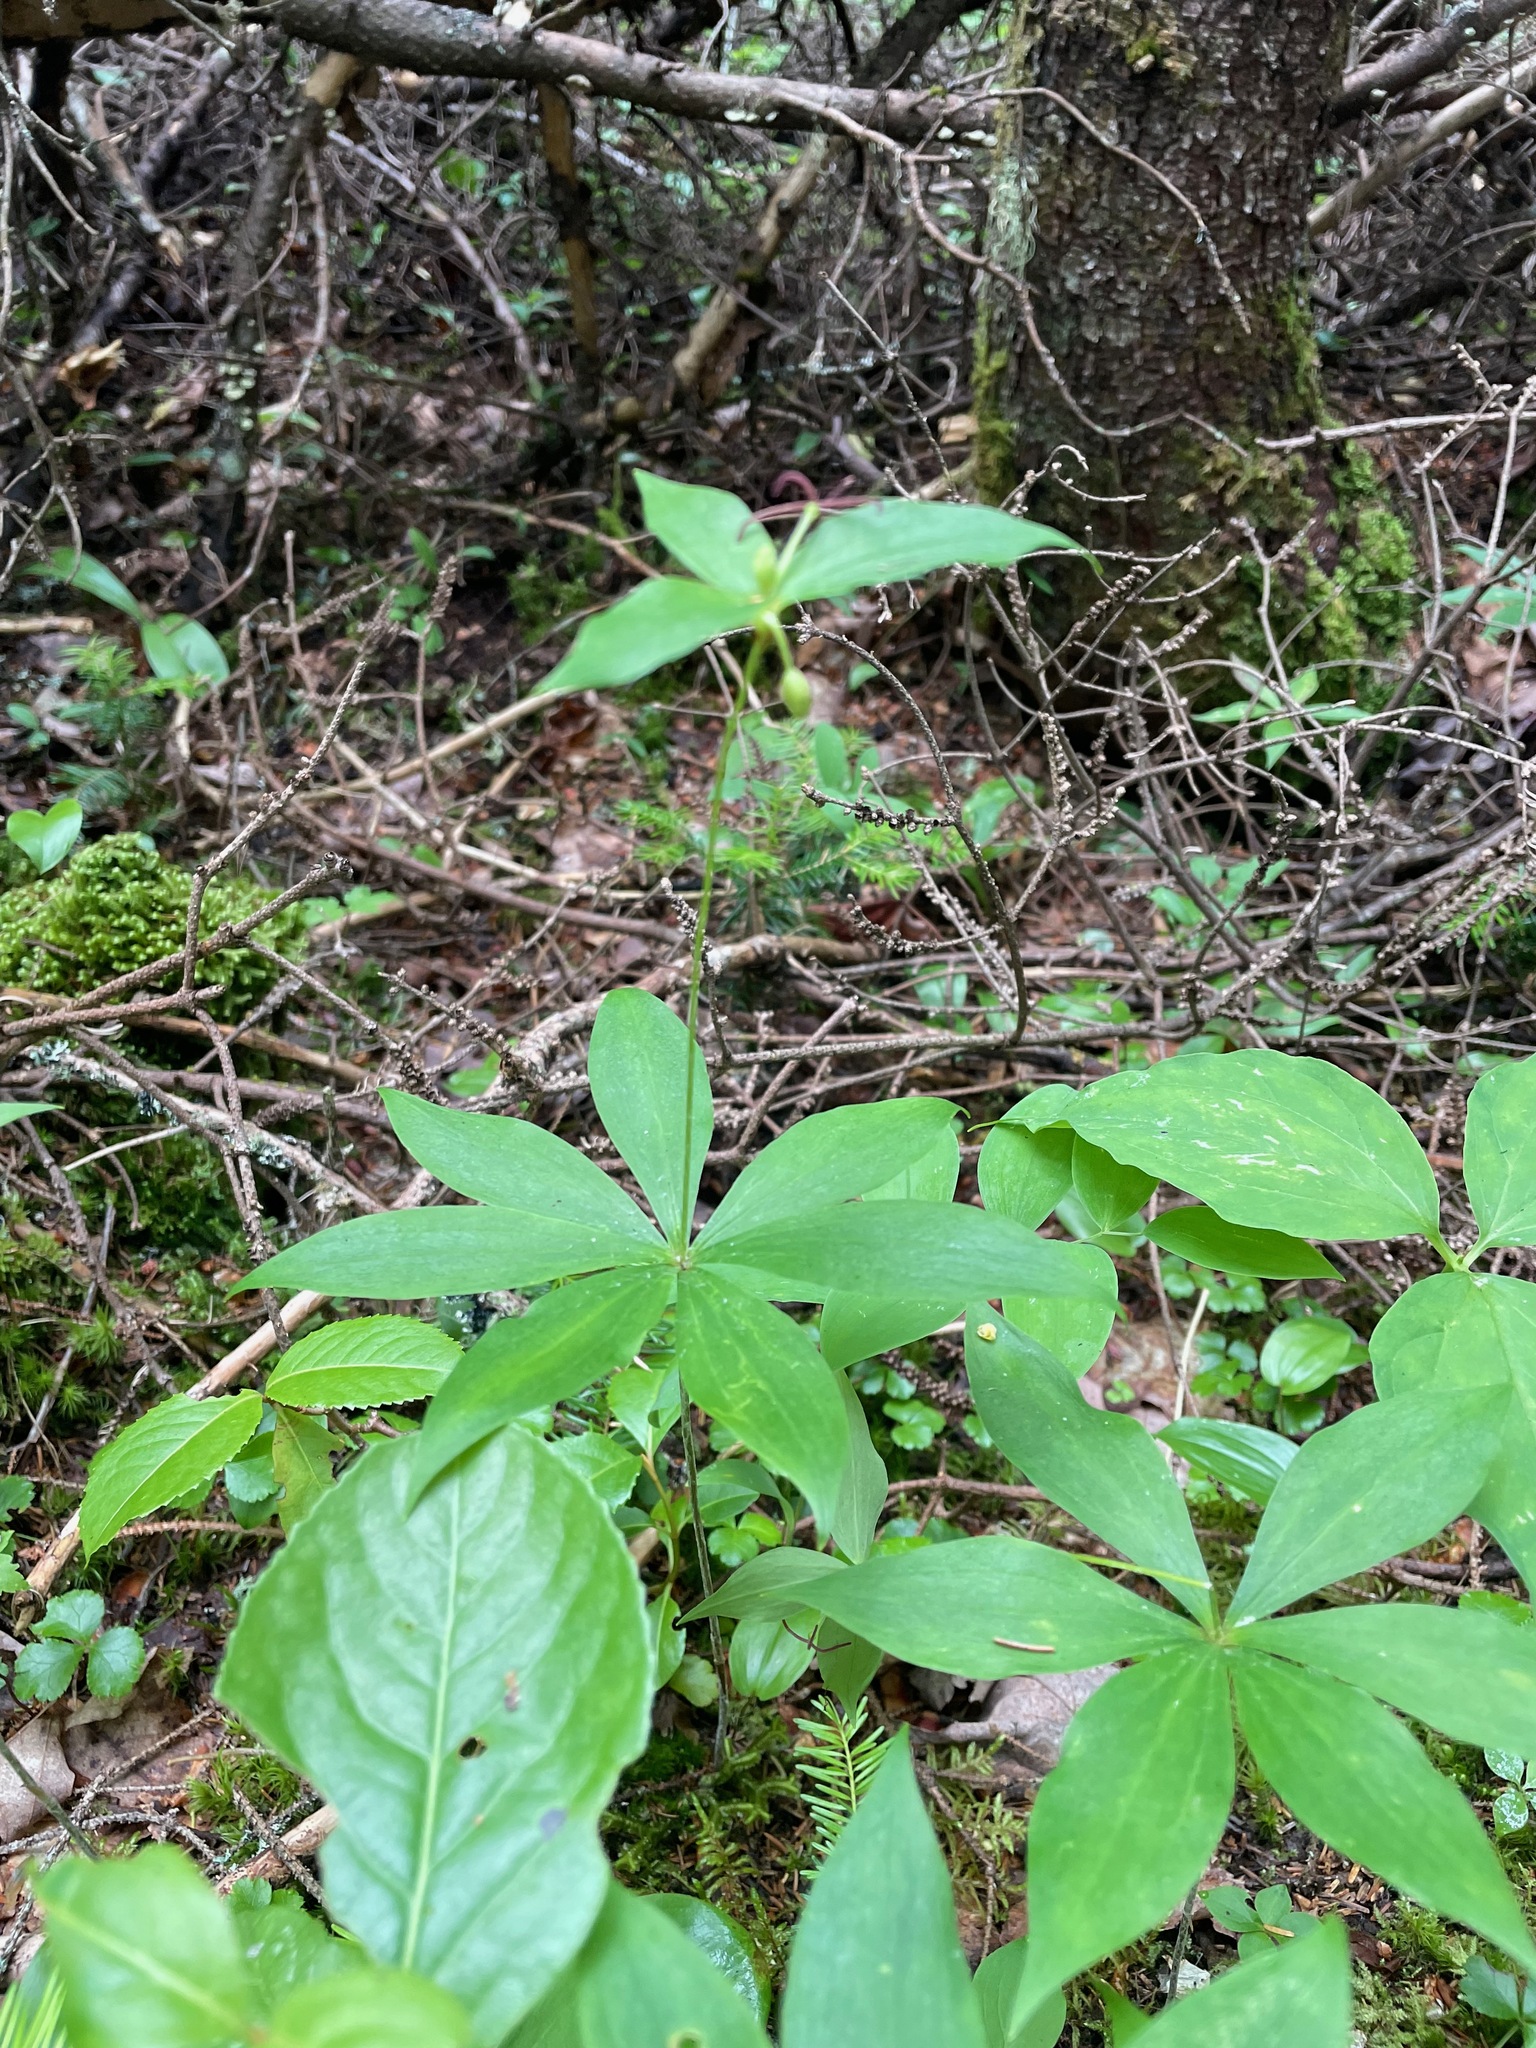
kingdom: Plantae
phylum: Tracheophyta
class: Liliopsida
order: Liliales
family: Liliaceae
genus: Medeola
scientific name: Medeola virginiana
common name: Indian cucumber-root
